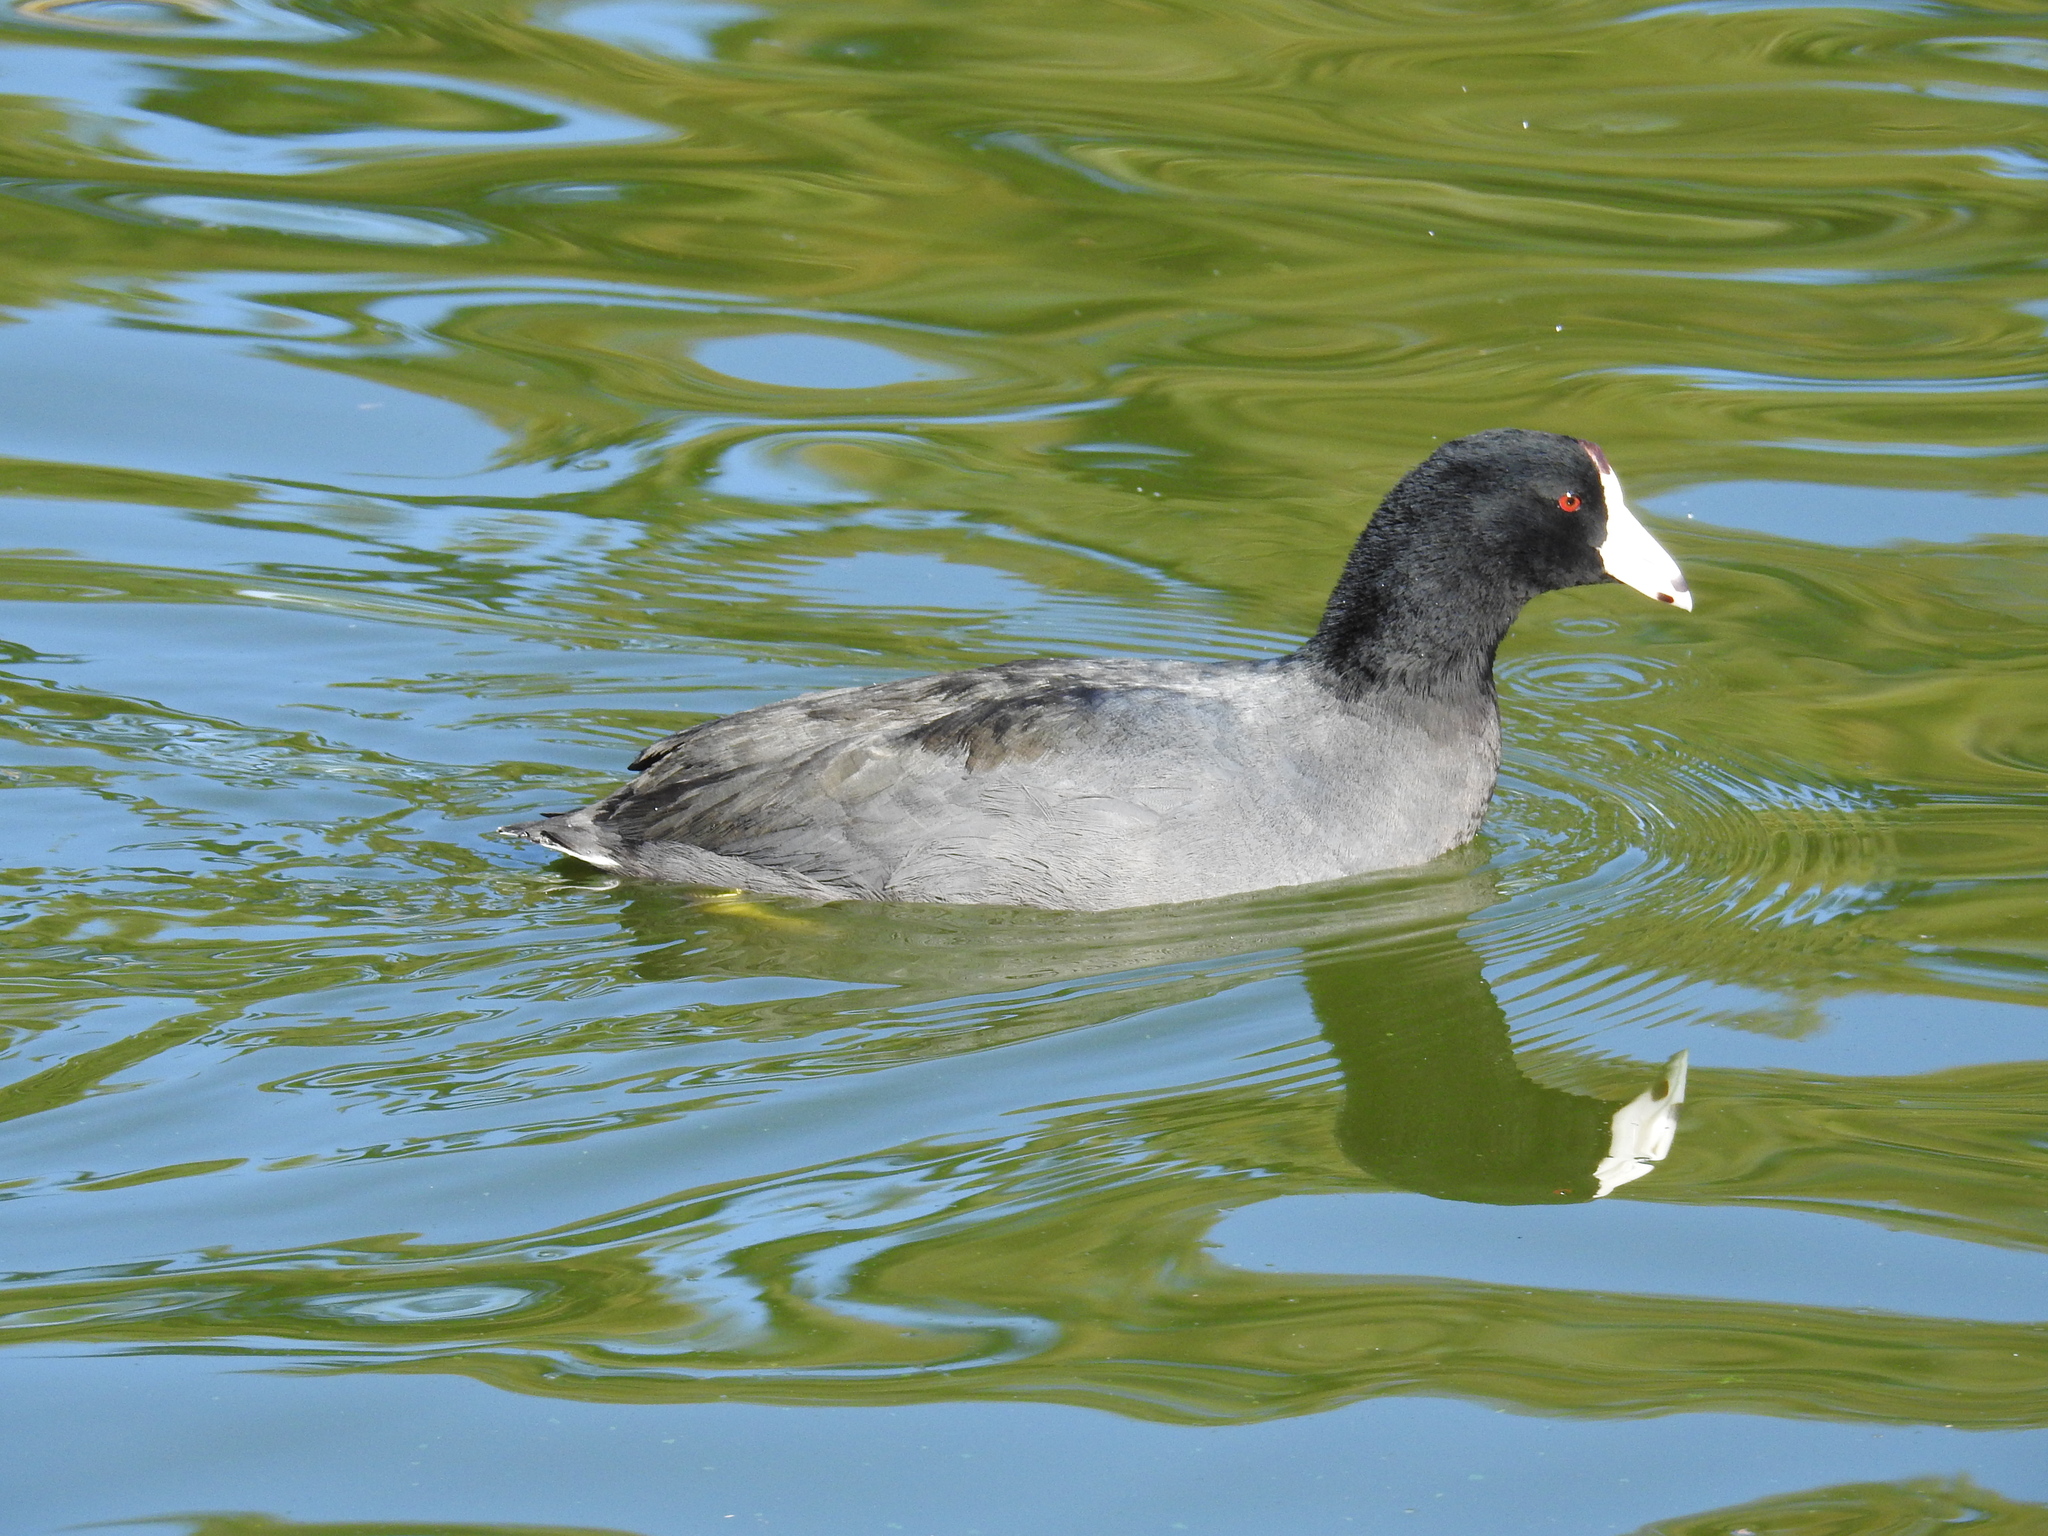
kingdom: Animalia
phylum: Chordata
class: Aves
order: Gruiformes
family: Rallidae
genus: Fulica
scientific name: Fulica americana
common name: American coot
